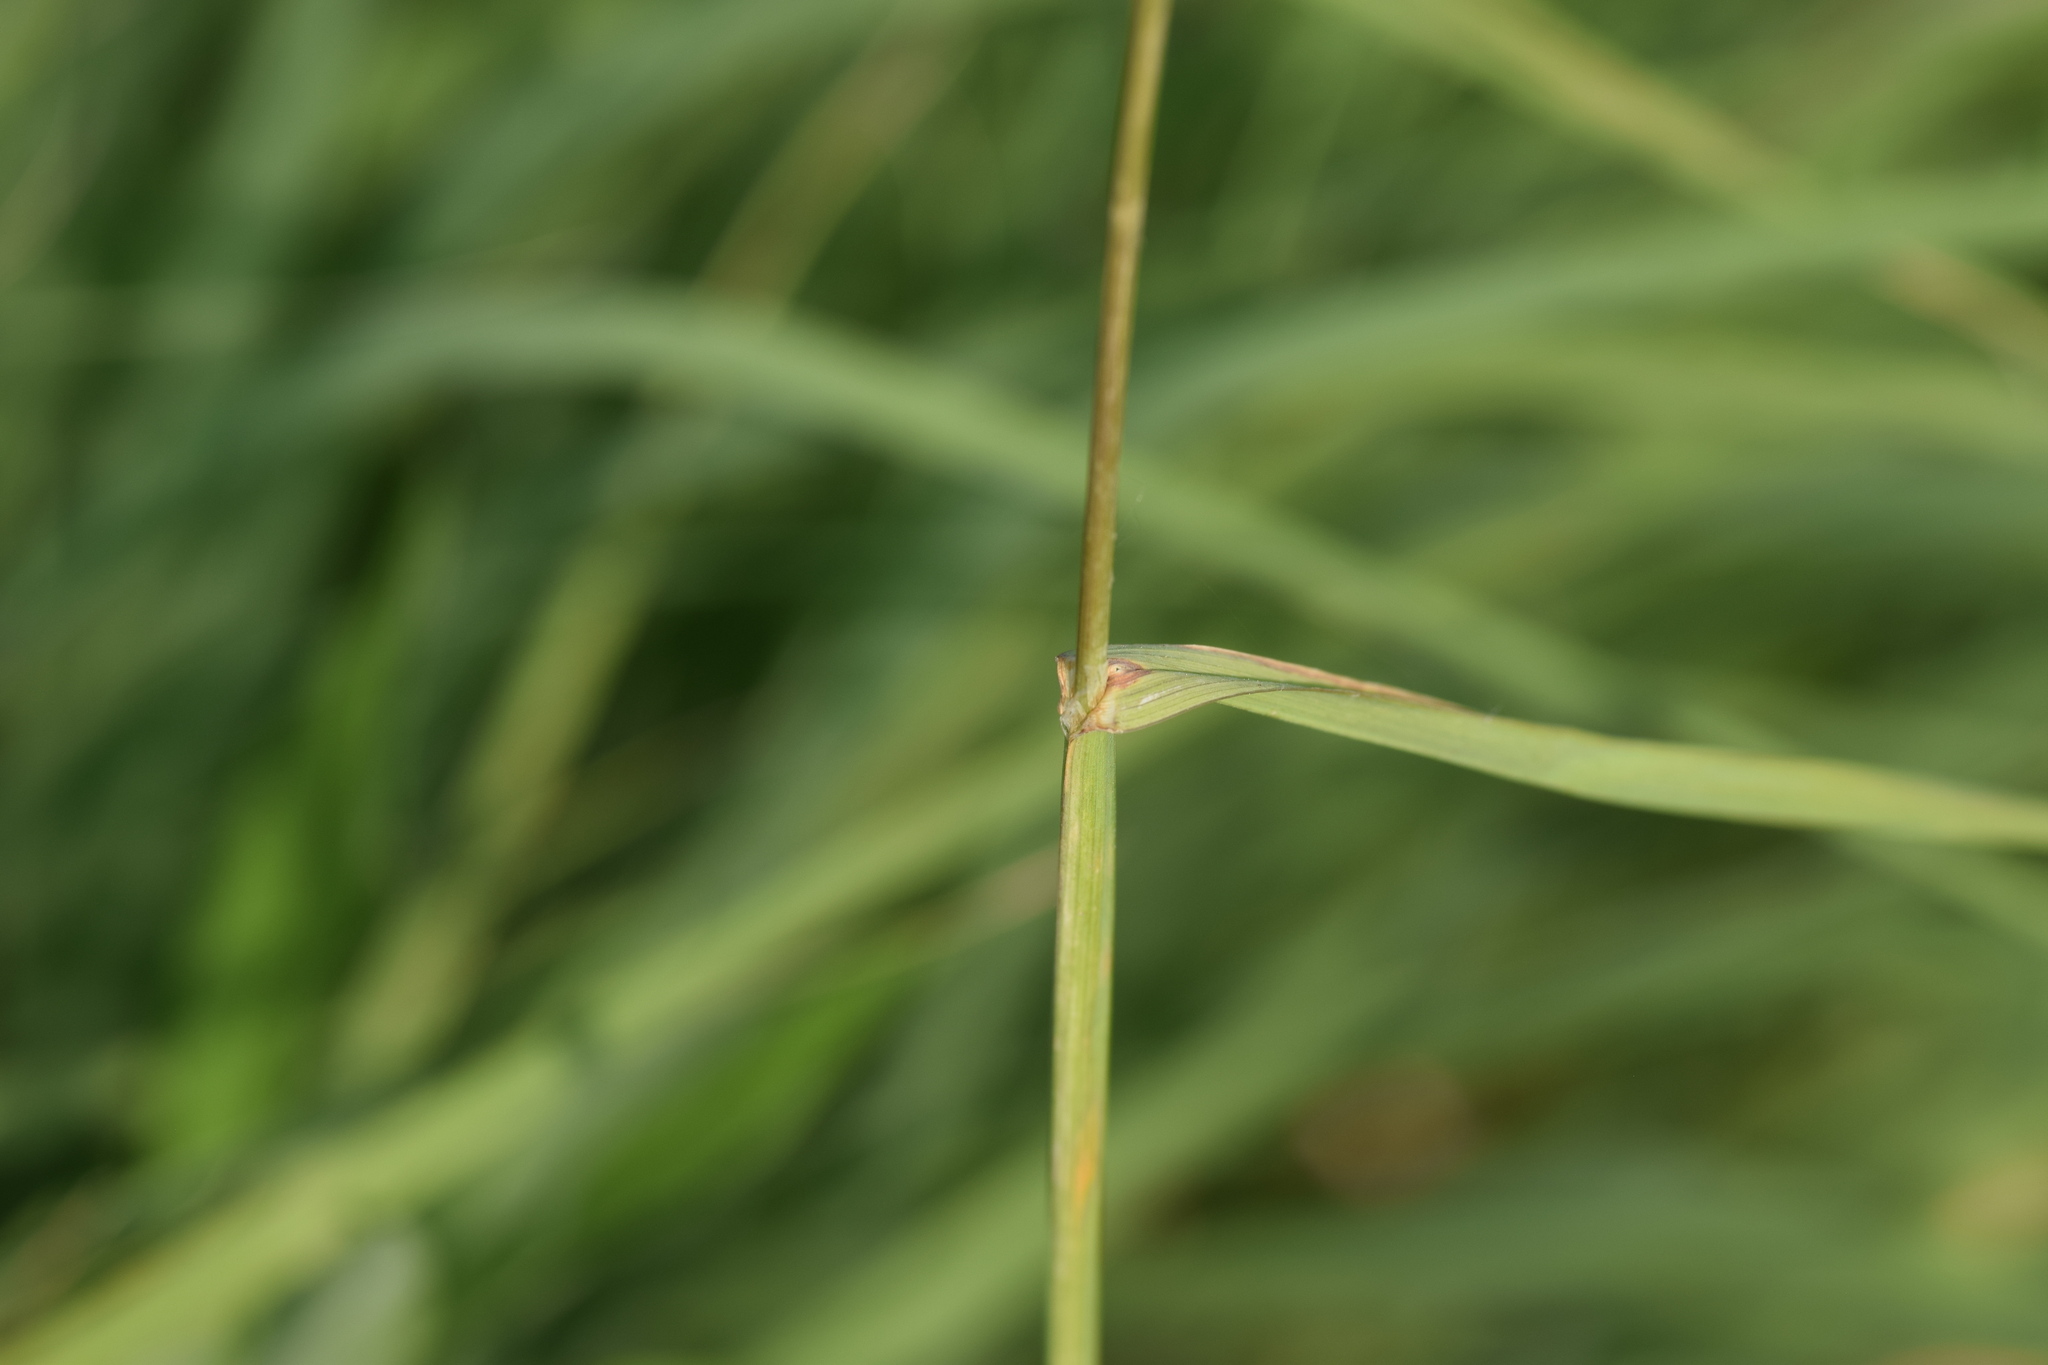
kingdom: Plantae
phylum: Tracheophyta
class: Liliopsida
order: Poales
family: Poaceae
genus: Dactylis
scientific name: Dactylis glomerata
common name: Orchardgrass
